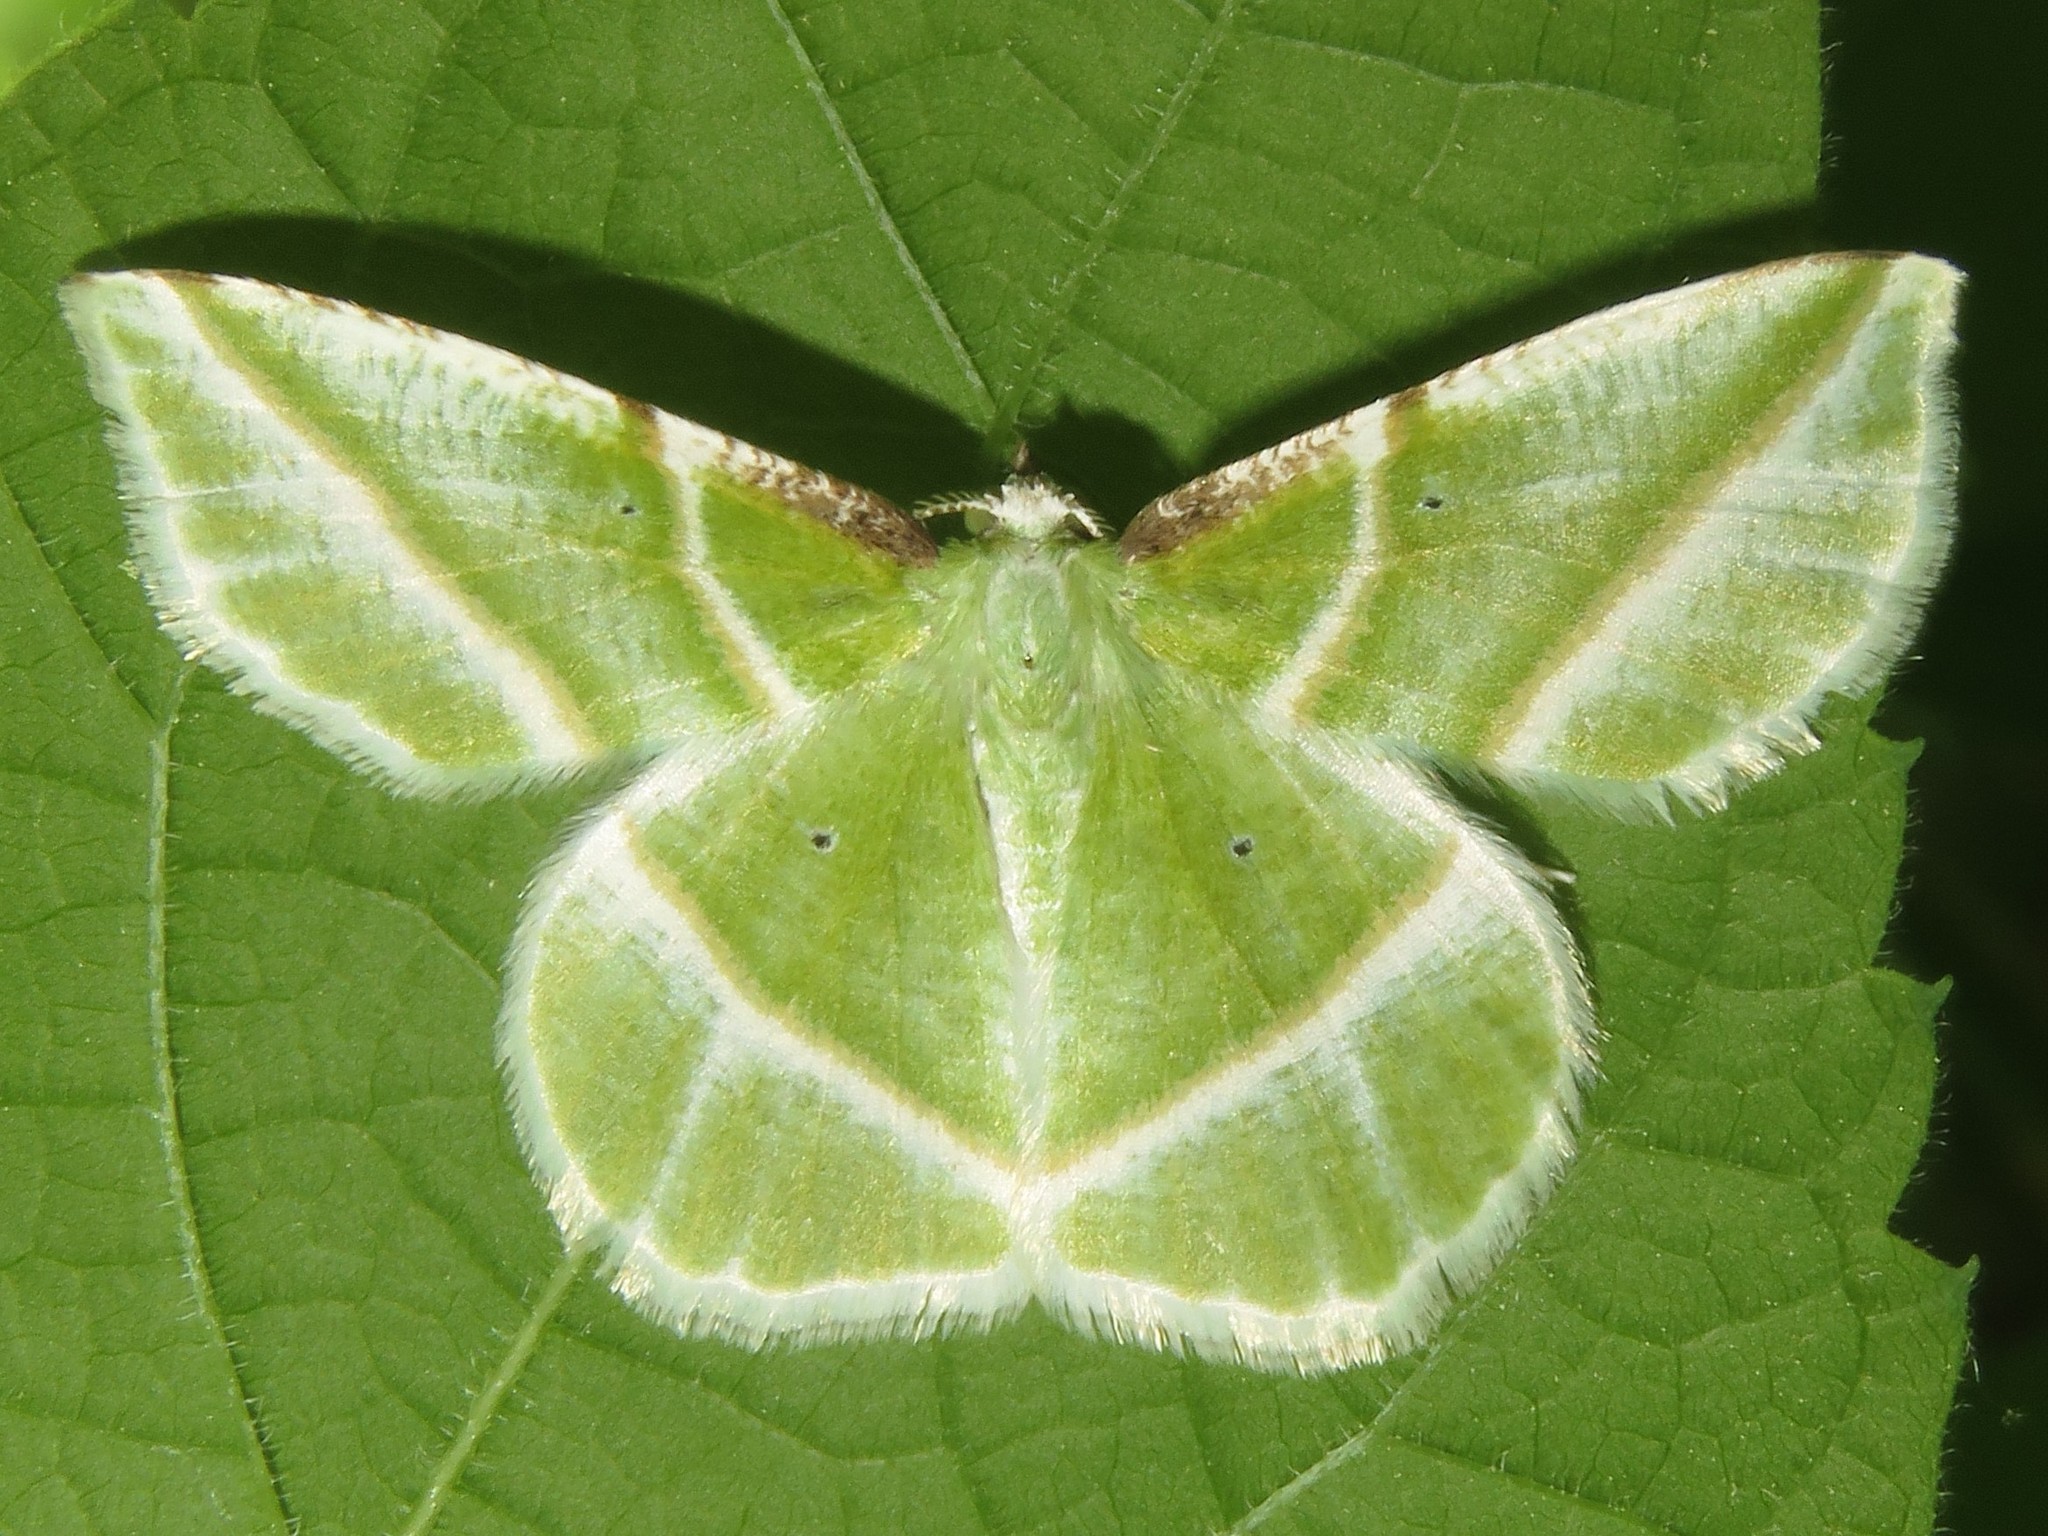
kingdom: Animalia
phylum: Arthropoda
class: Insecta
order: Lepidoptera
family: Geometridae
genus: Dichorda
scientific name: Dichorda iridaria
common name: Showy emerald
